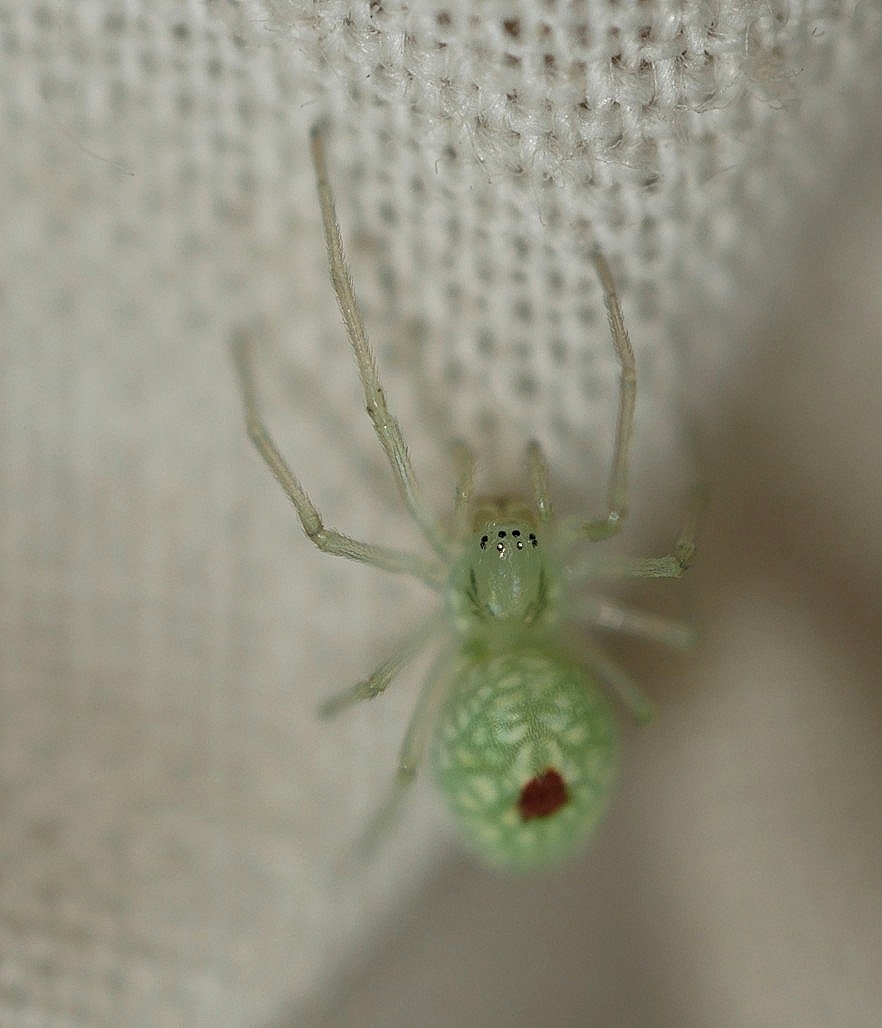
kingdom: Animalia
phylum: Arthropoda
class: Arachnida
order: Araneae
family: Dictynidae
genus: Nigma
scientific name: Nigma linsdalei
